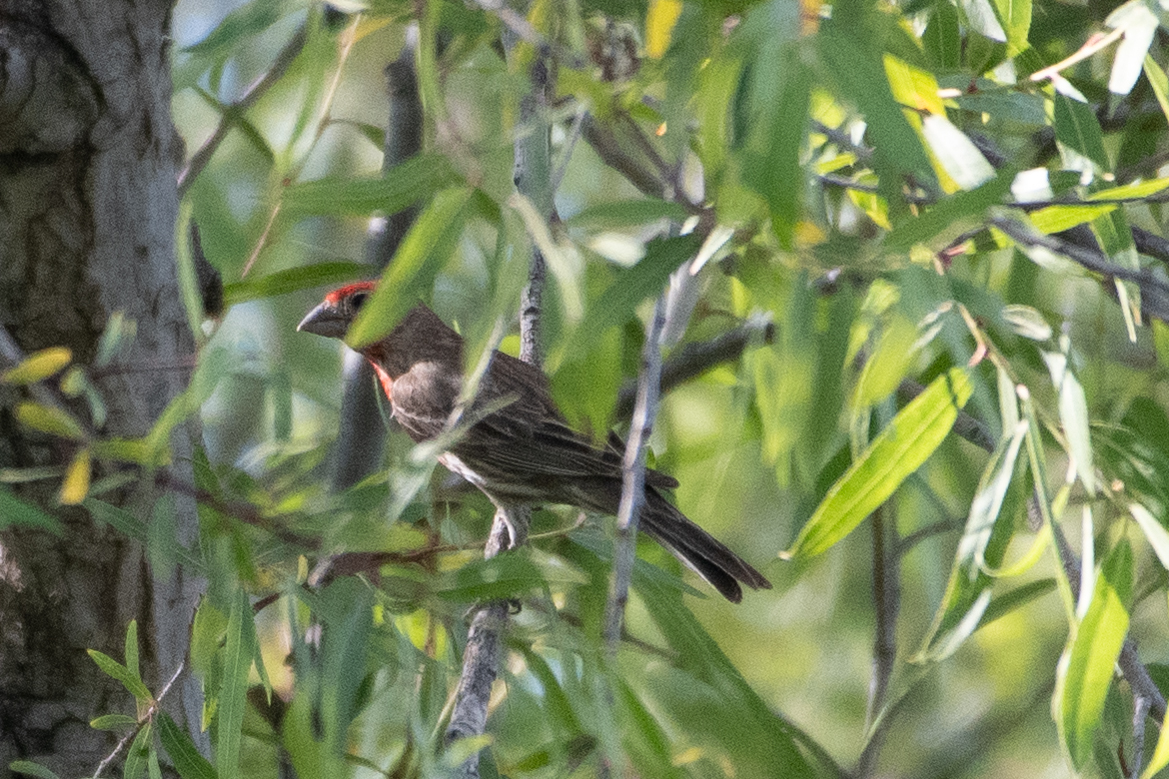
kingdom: Animalia
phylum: Chordata
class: Aves
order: Passeriformes
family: Fringillidae
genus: Haemorhous
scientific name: Haemorhous mexicanus
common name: House finch
